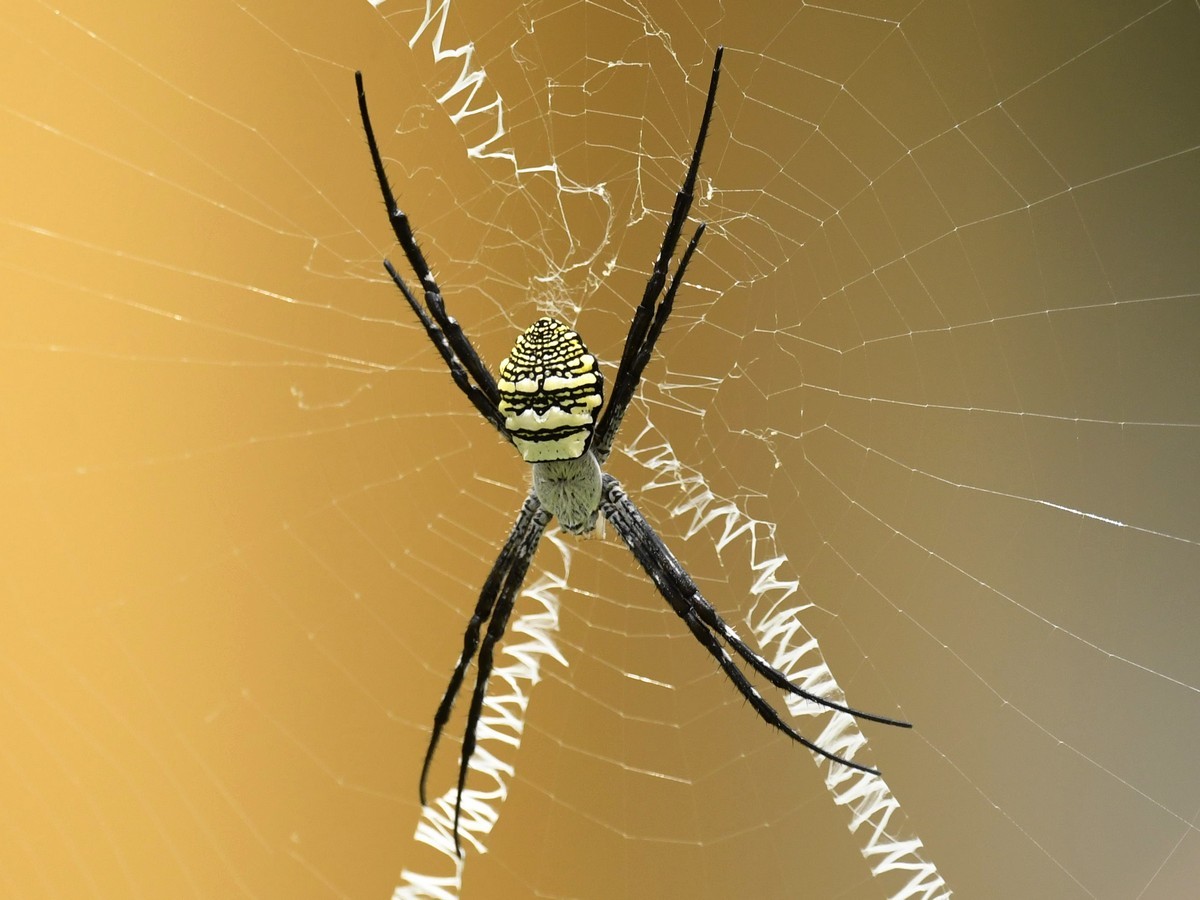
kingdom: Animalia
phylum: Arthropoda
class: Arachnida
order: Araneae
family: Araneidae
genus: Argiope
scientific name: Argiope aemula
